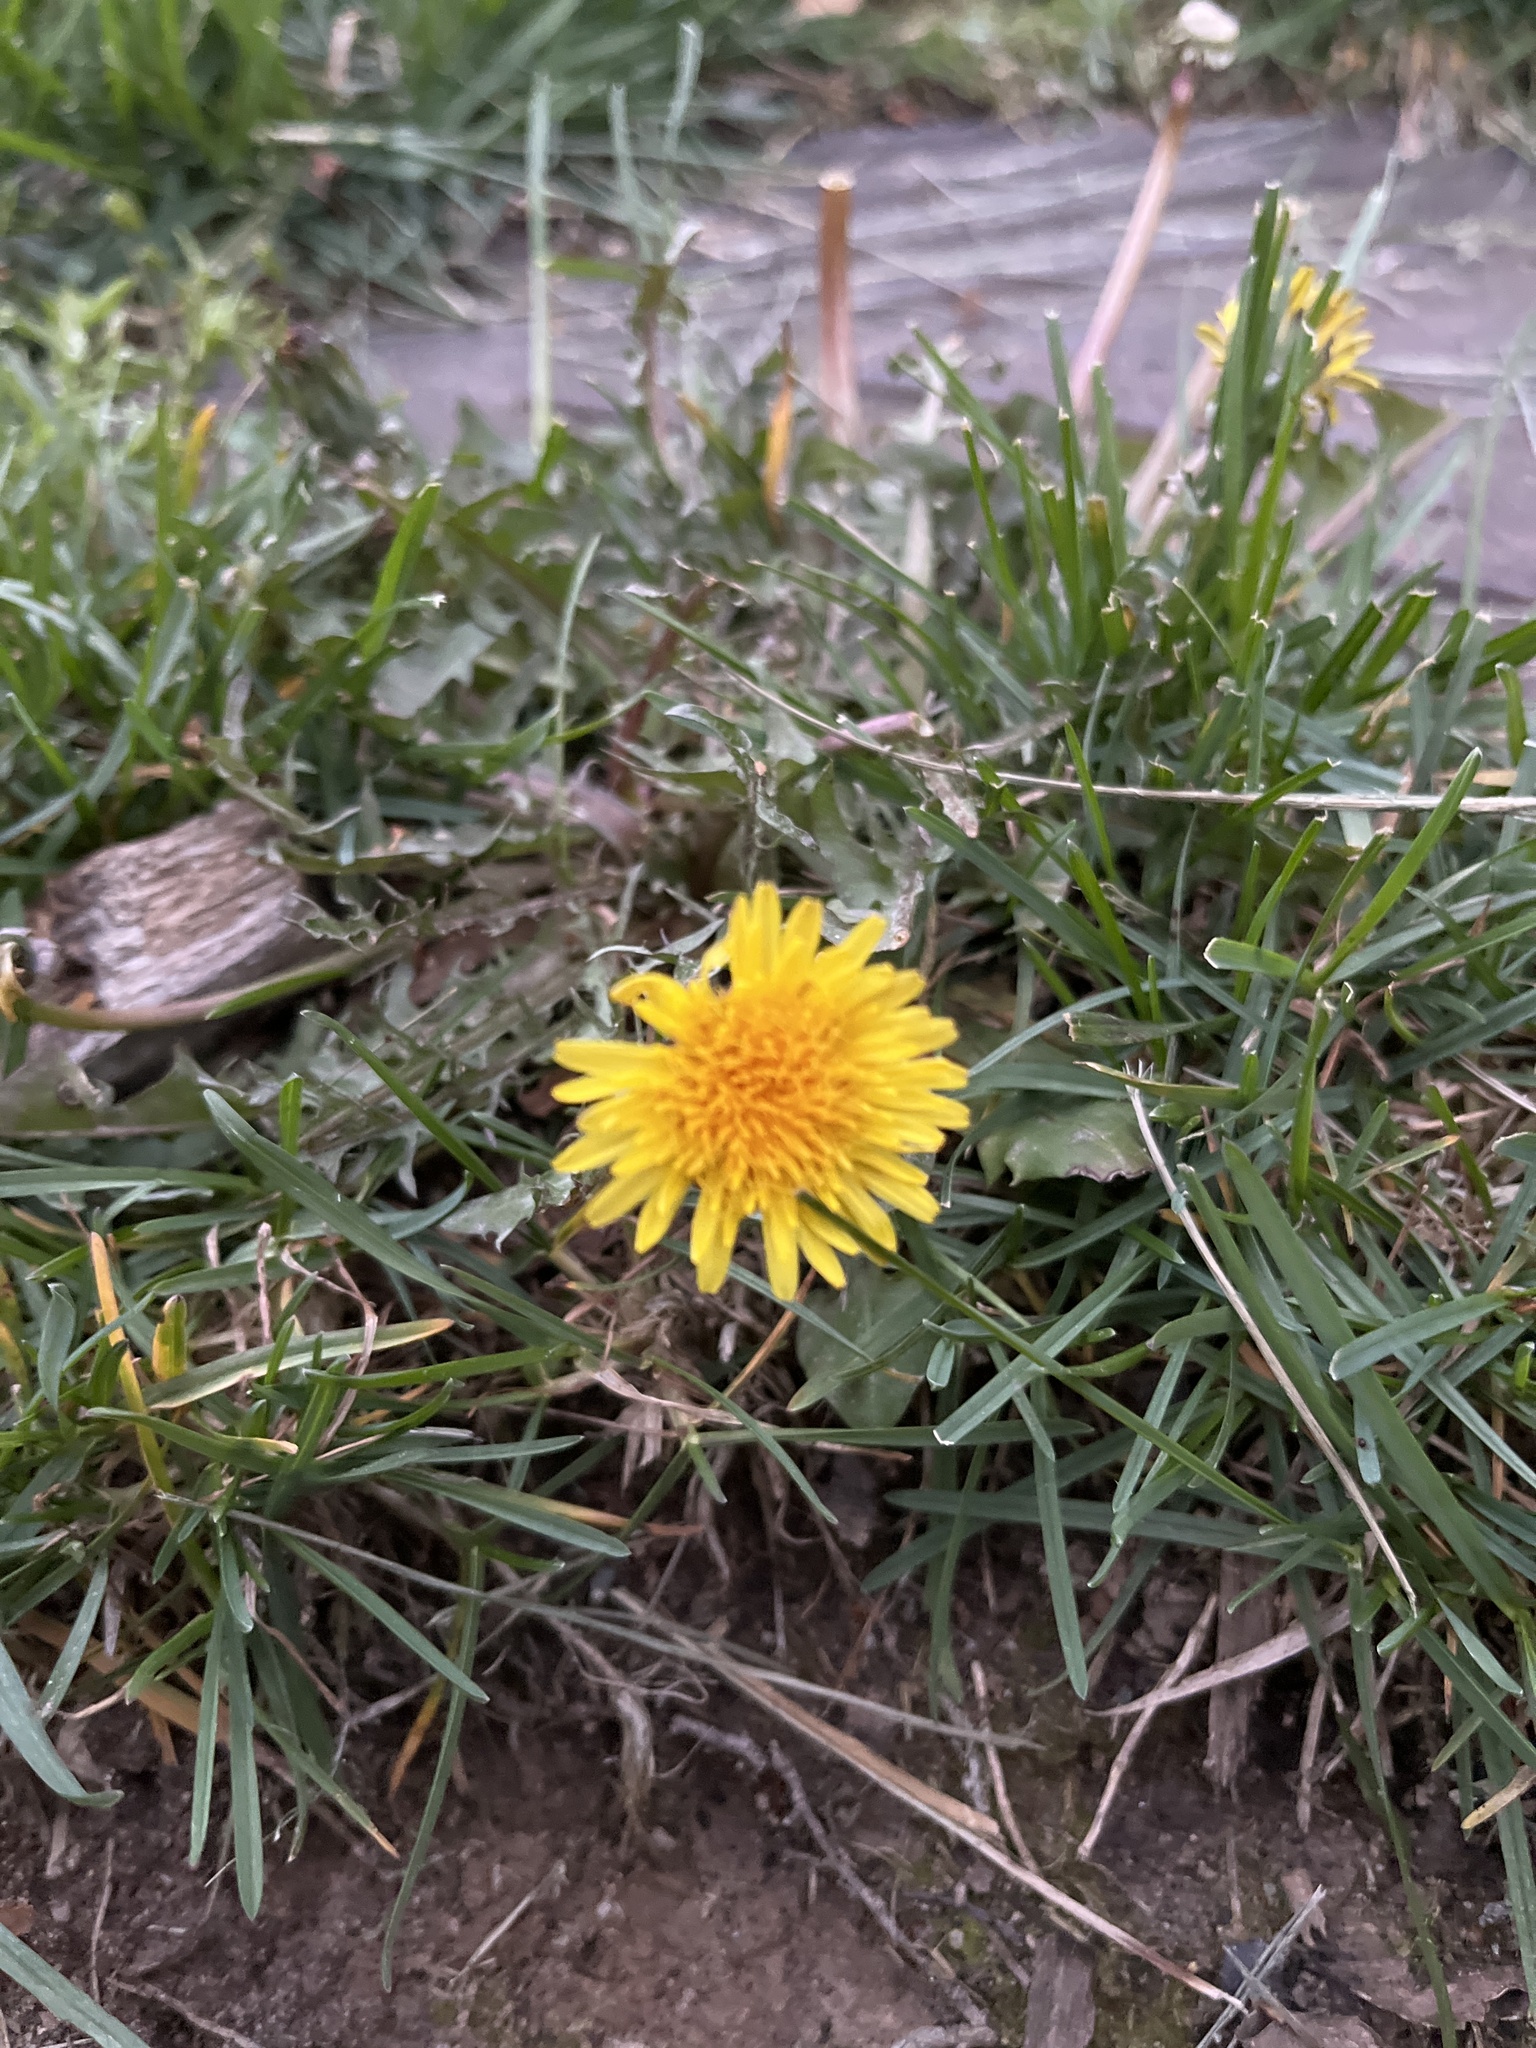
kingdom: Plantae
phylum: Tracheophyta
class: Magnoliopsida
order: Asterales
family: Asteraceae
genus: Taraxacum
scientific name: Taraxacum
